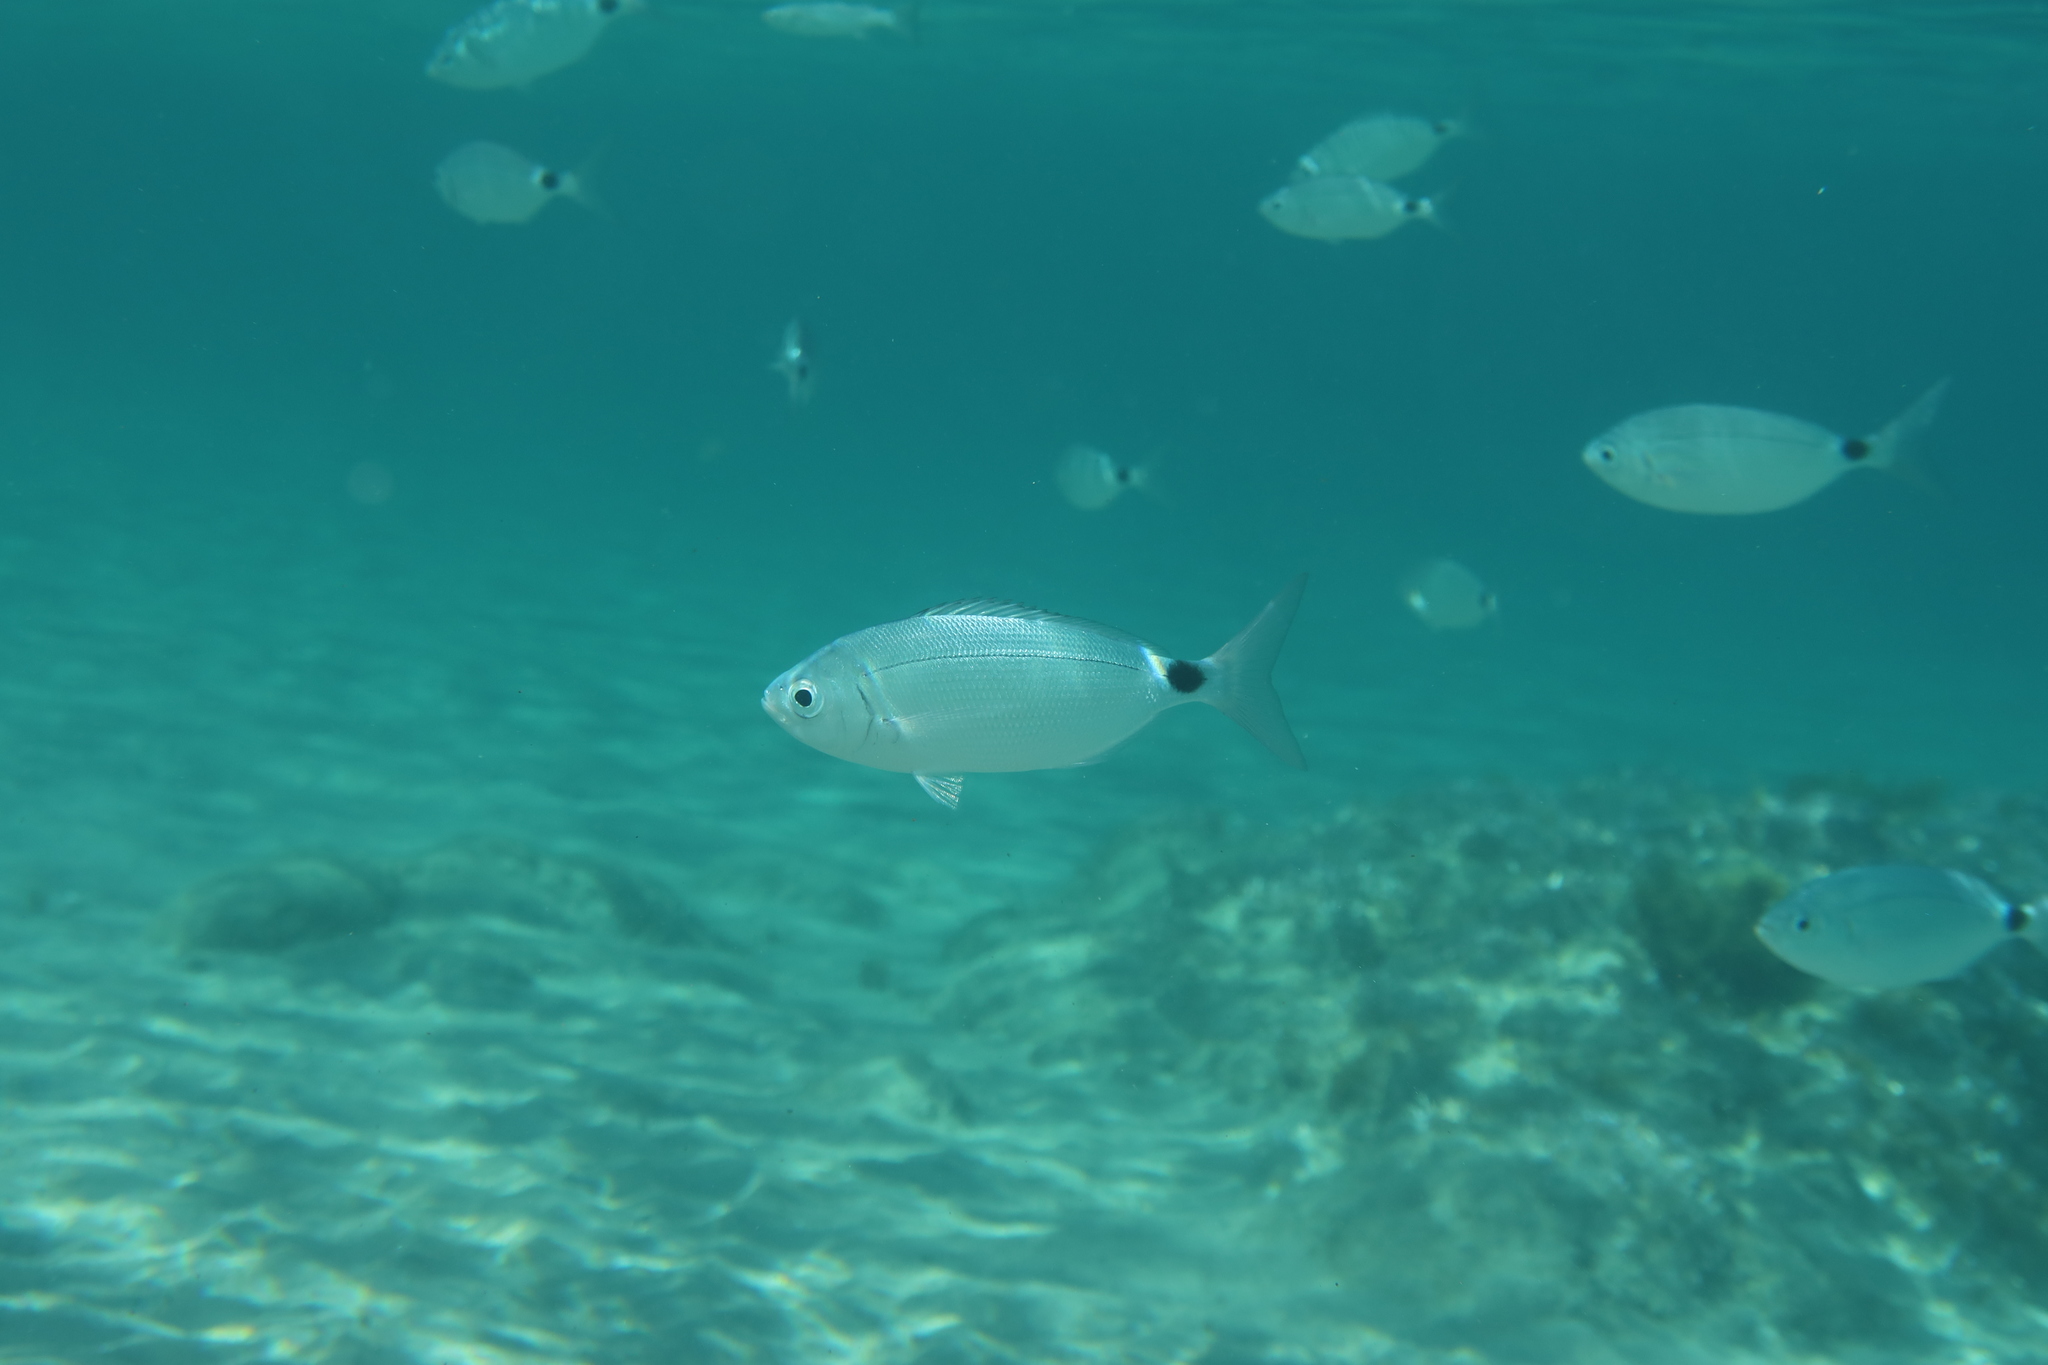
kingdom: Animalia
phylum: Chordata
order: Perciformes
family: Sparidae
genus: Oblada
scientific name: Oblada melanura
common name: Saddled seabream
